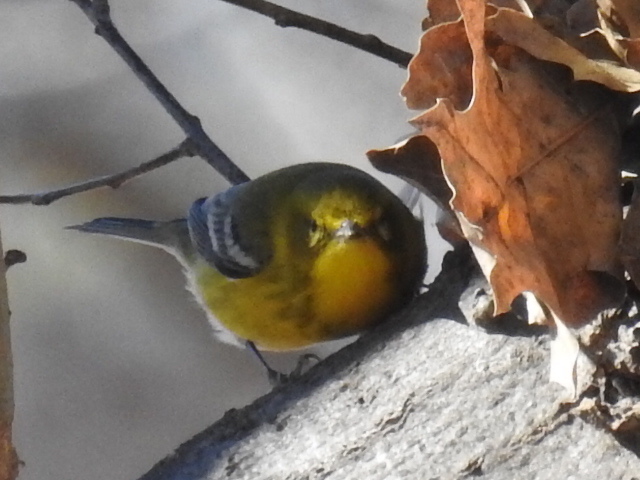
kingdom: Animalia
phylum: Chordata
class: Aves
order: Passeriformes
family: Parulidae
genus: Setophaga
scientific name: Setophaga pinus
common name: Pine warbler
